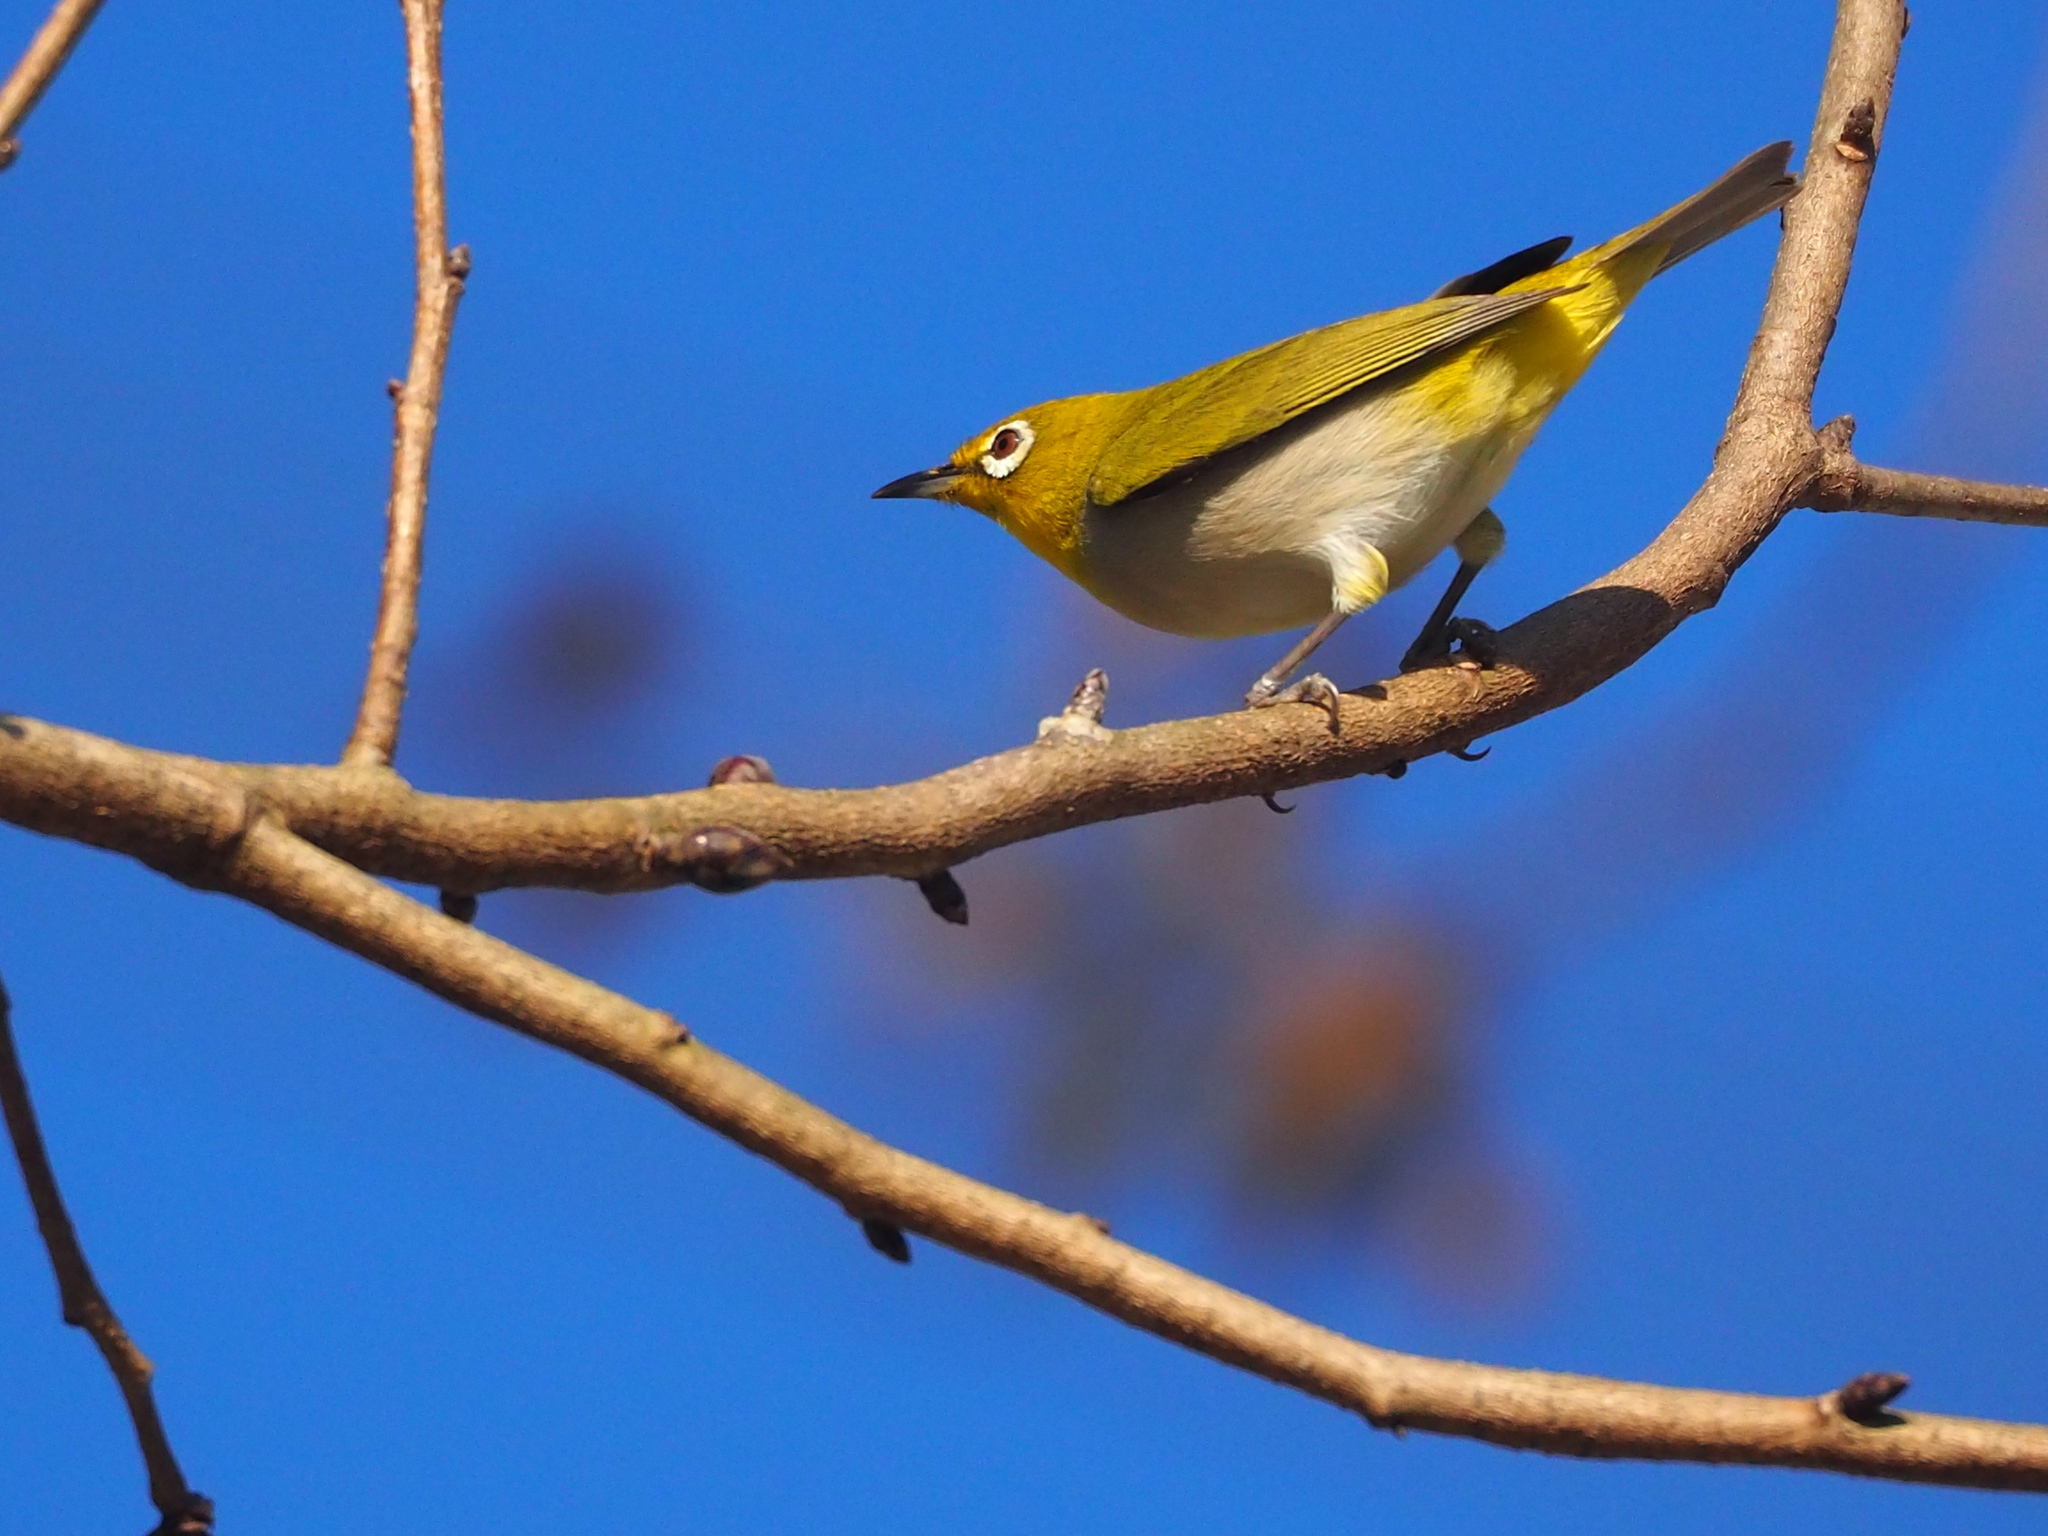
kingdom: Animalia
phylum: Chordata
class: Aves
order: Passeriformes
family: Zosteropidae
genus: Zosterops
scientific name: Zosterops simplex
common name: Swinhoe's white-eye
